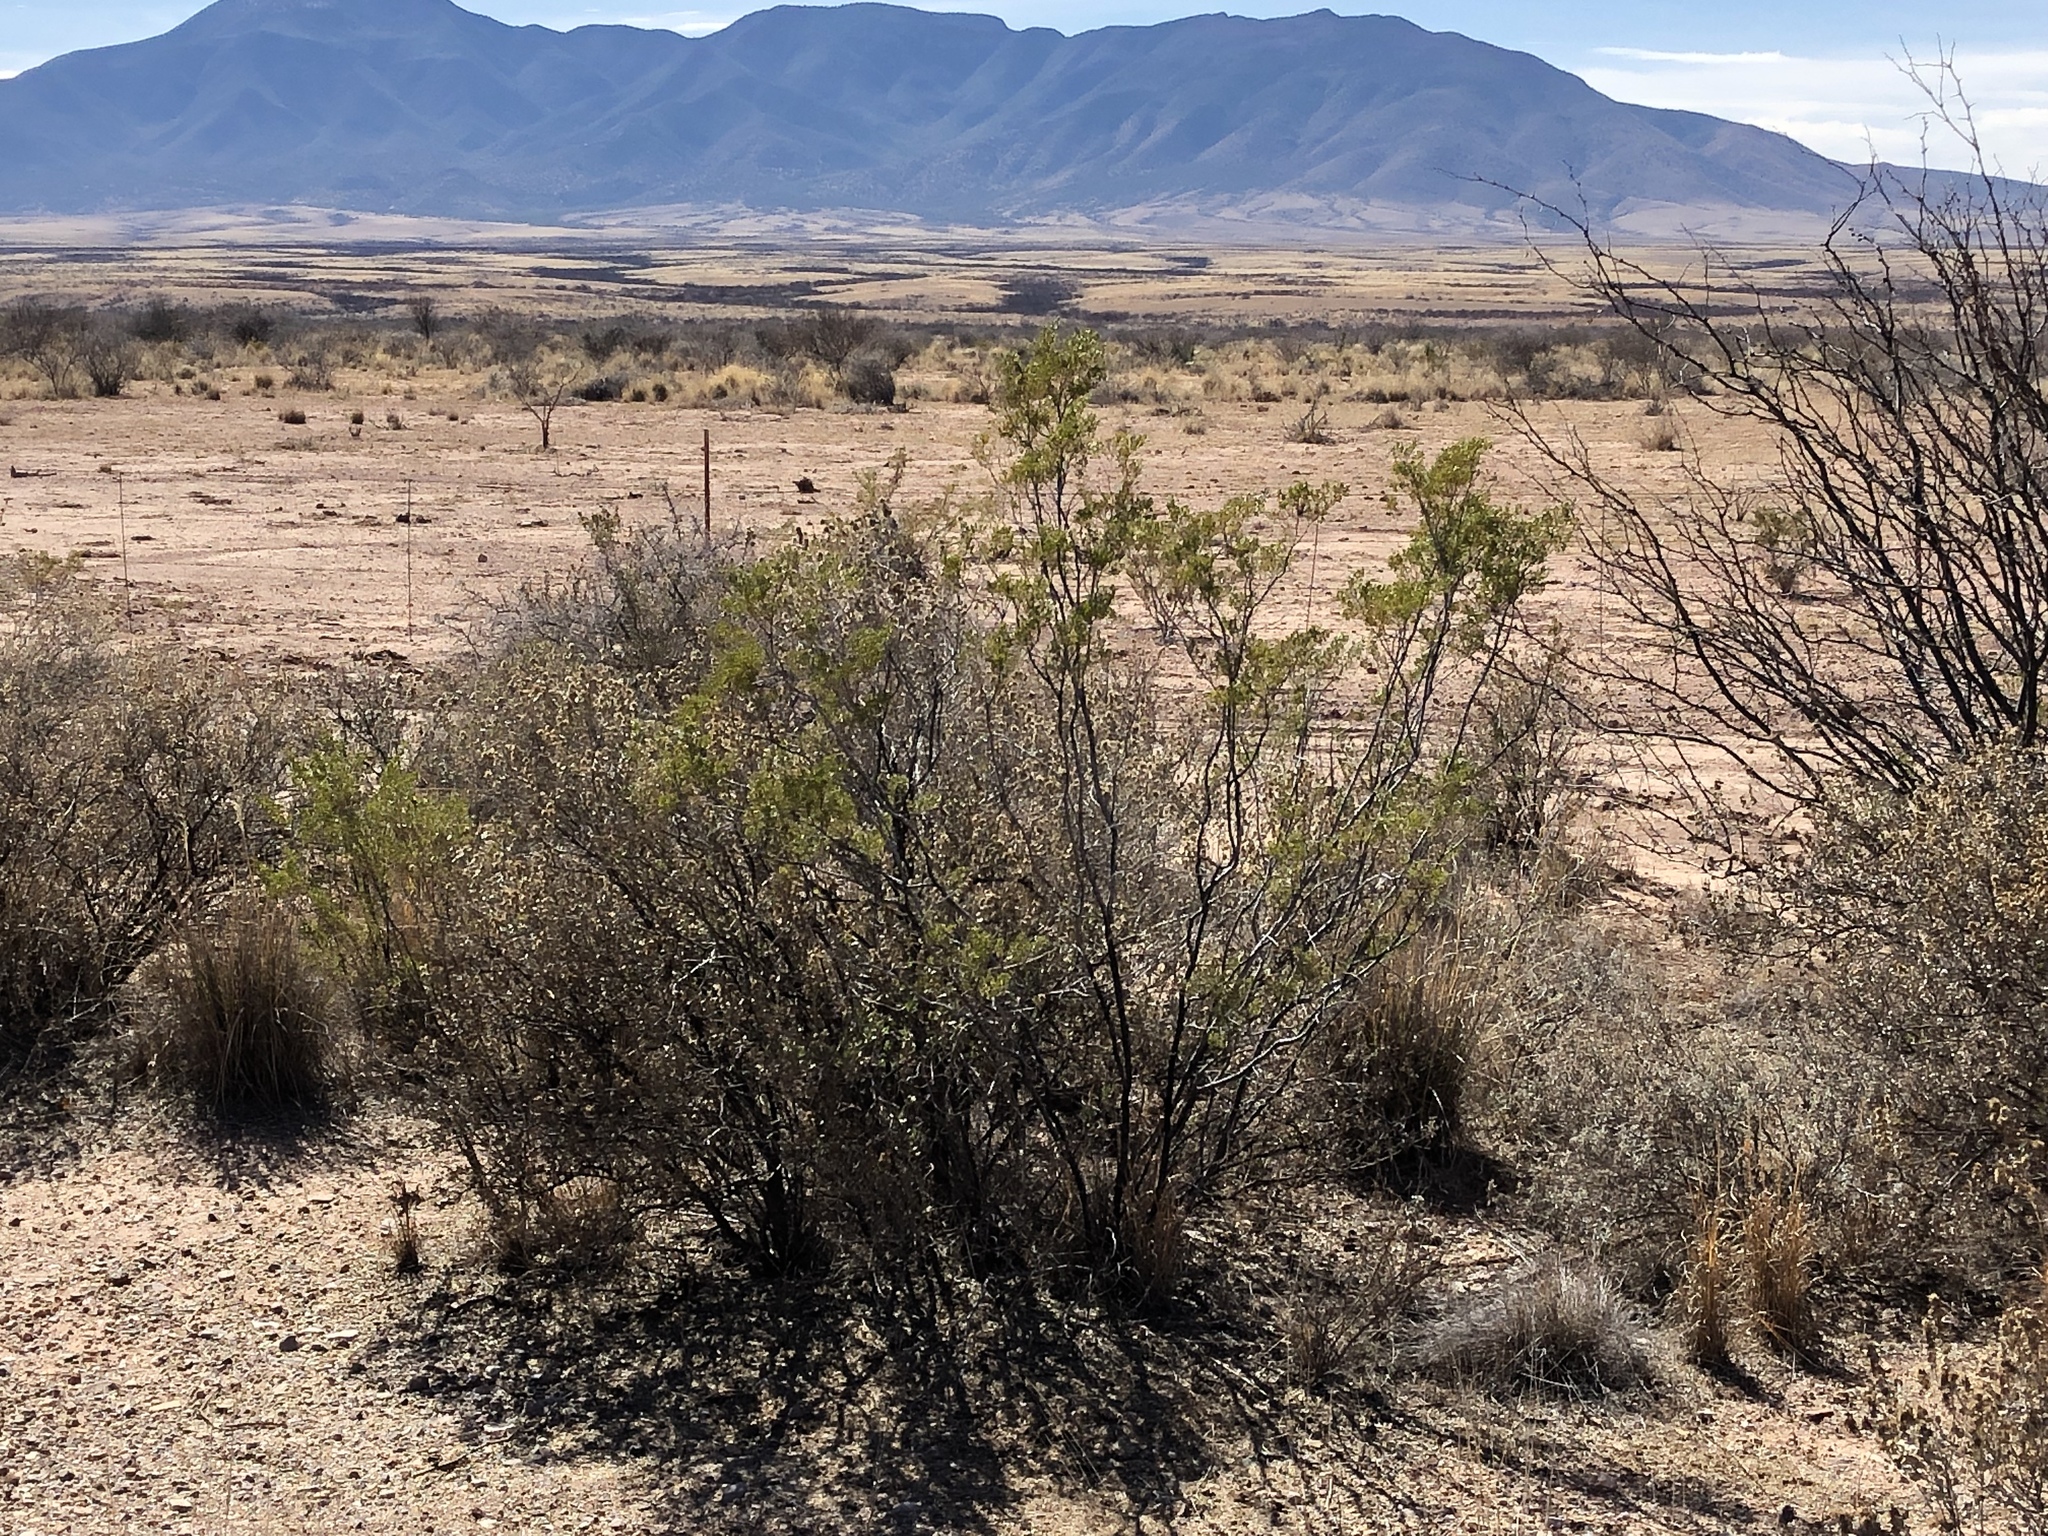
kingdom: Plantae
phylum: Tracheophyta
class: Magnoliopsida
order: Zygophyllales
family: Zygophyllaceae
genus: Larrea
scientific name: Larrea tridentata
